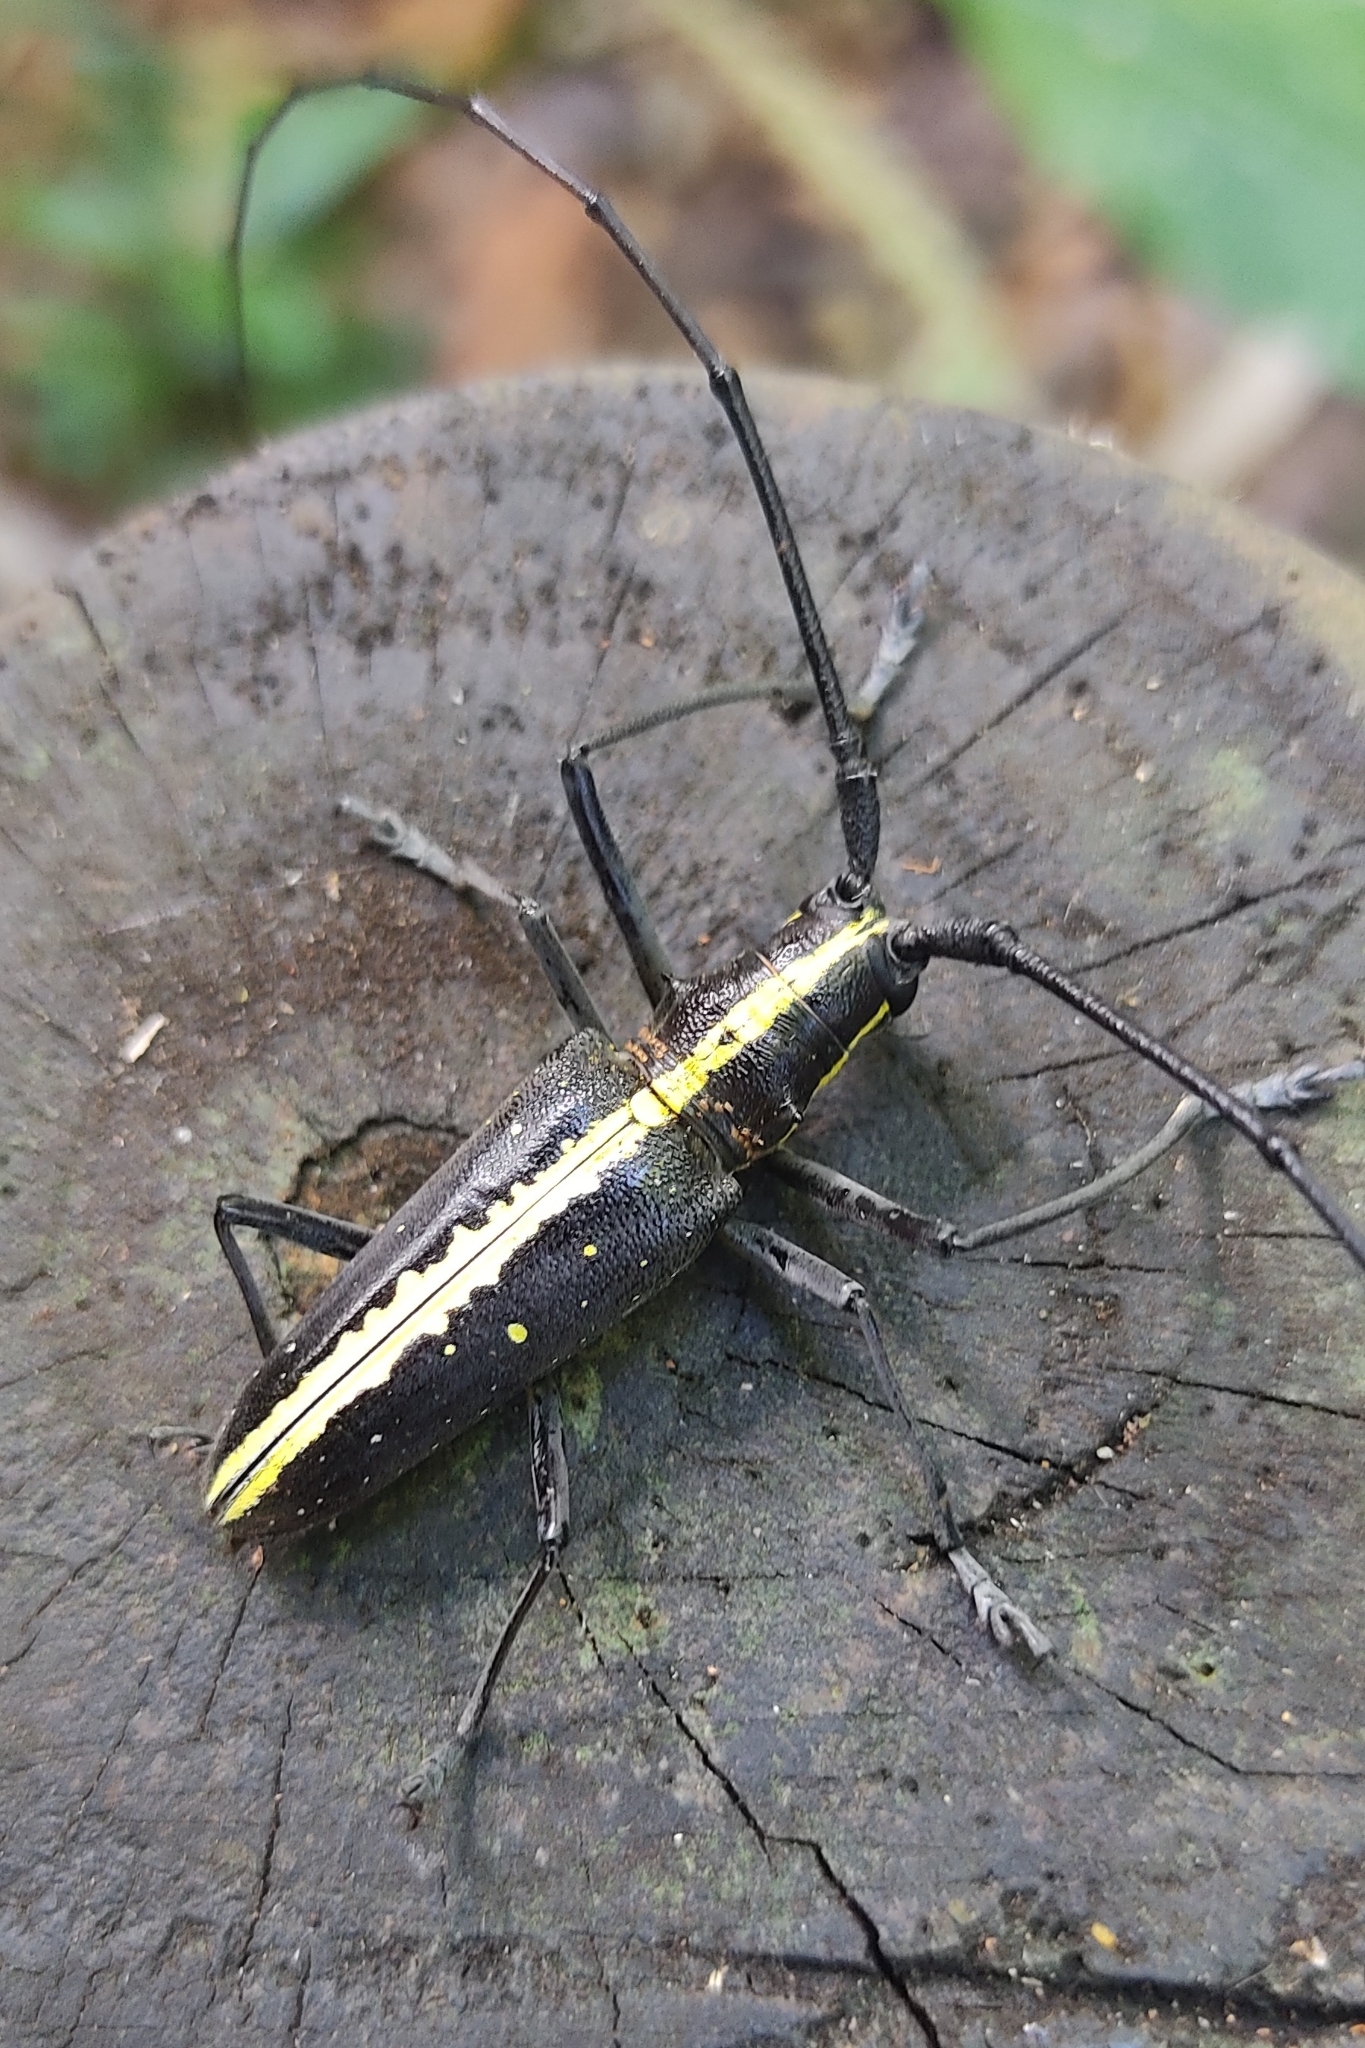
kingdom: Animalia
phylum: Arthropoda
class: Insecta
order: Coleoptera
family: Cerambycidae
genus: Taeniotes
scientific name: Taeniotes scalatus
